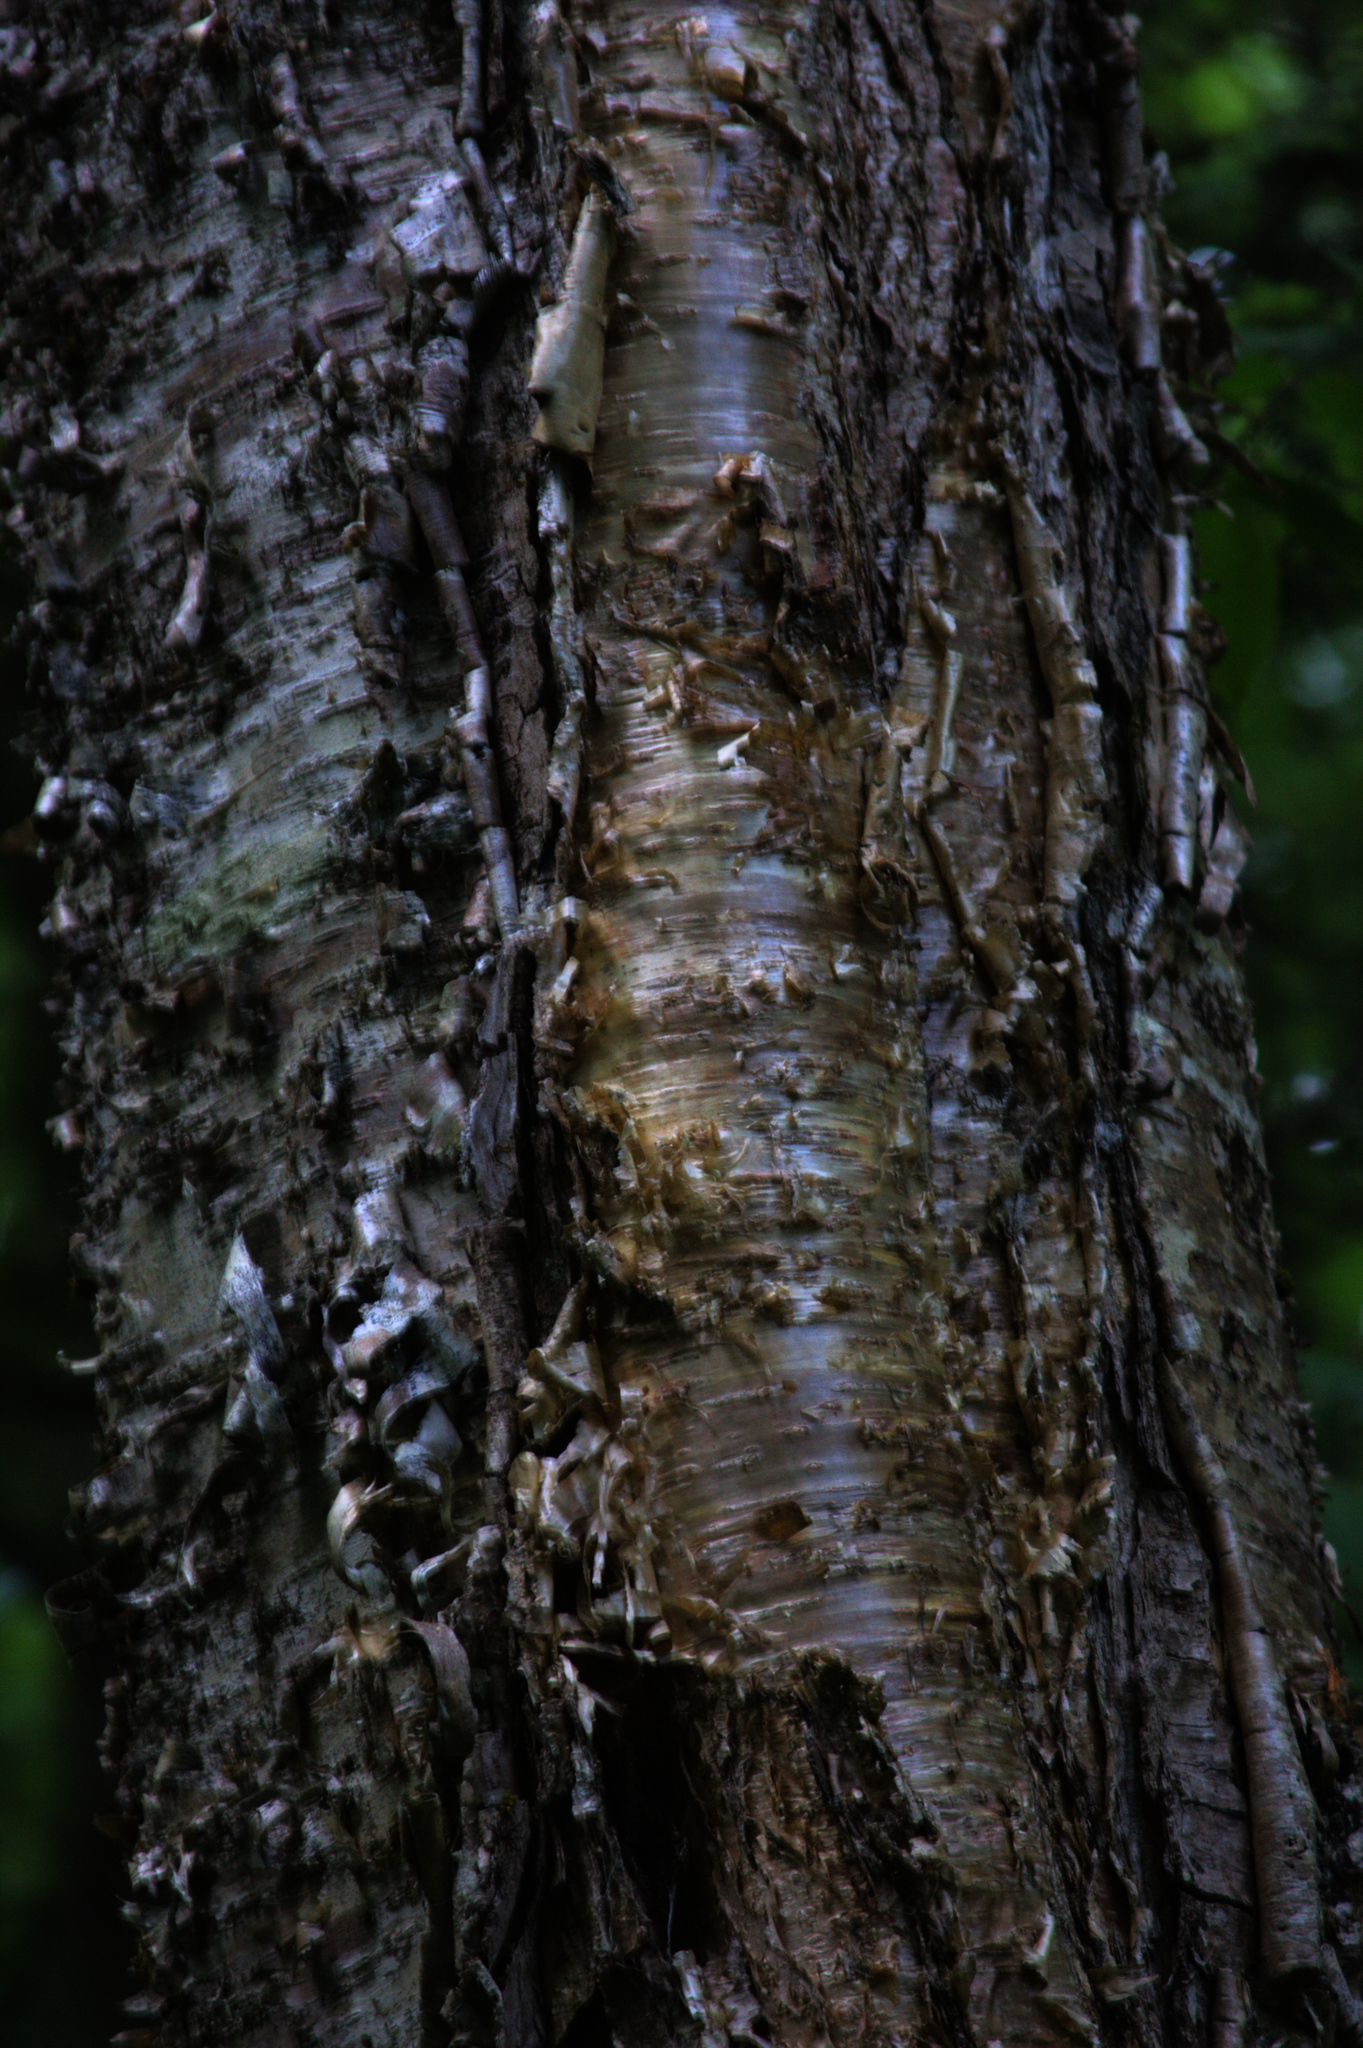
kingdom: Plantae
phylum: Tracheophyta
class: Magnoliopsida
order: Fagales
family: Betulaceae
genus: Betula
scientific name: Betula alleghaniensis
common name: Yellow birch
